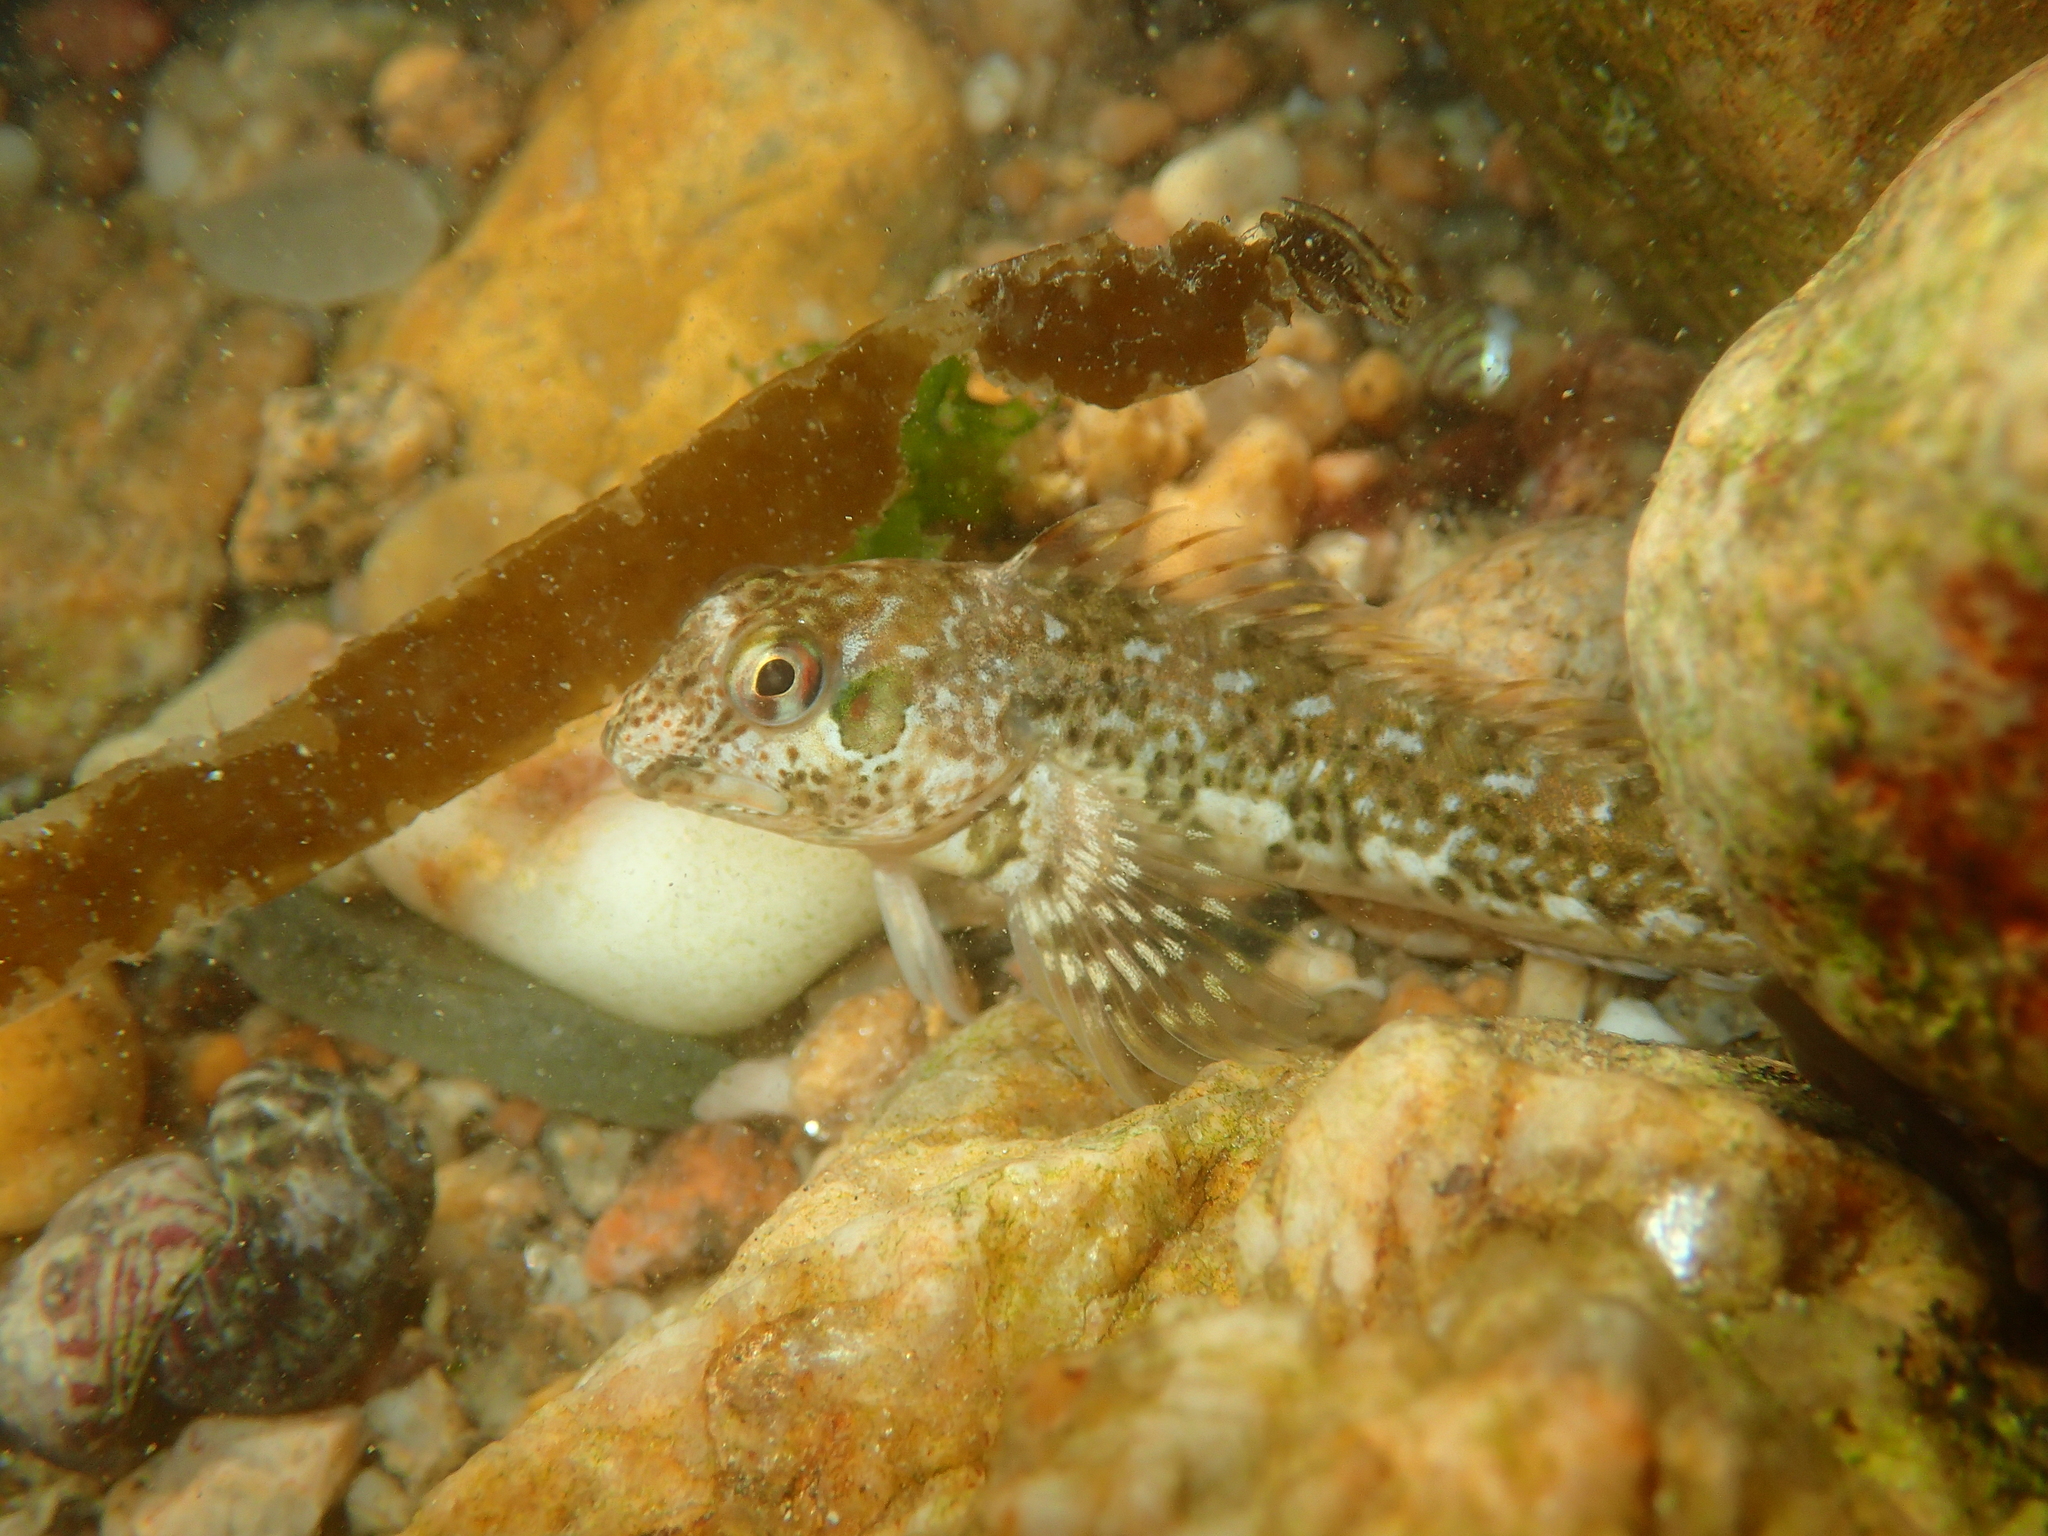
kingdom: Animalia
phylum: Chordata
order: Perciformes
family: Blenniidae
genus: Lipophrys
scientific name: Lipophrys pholis
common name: Shanny
